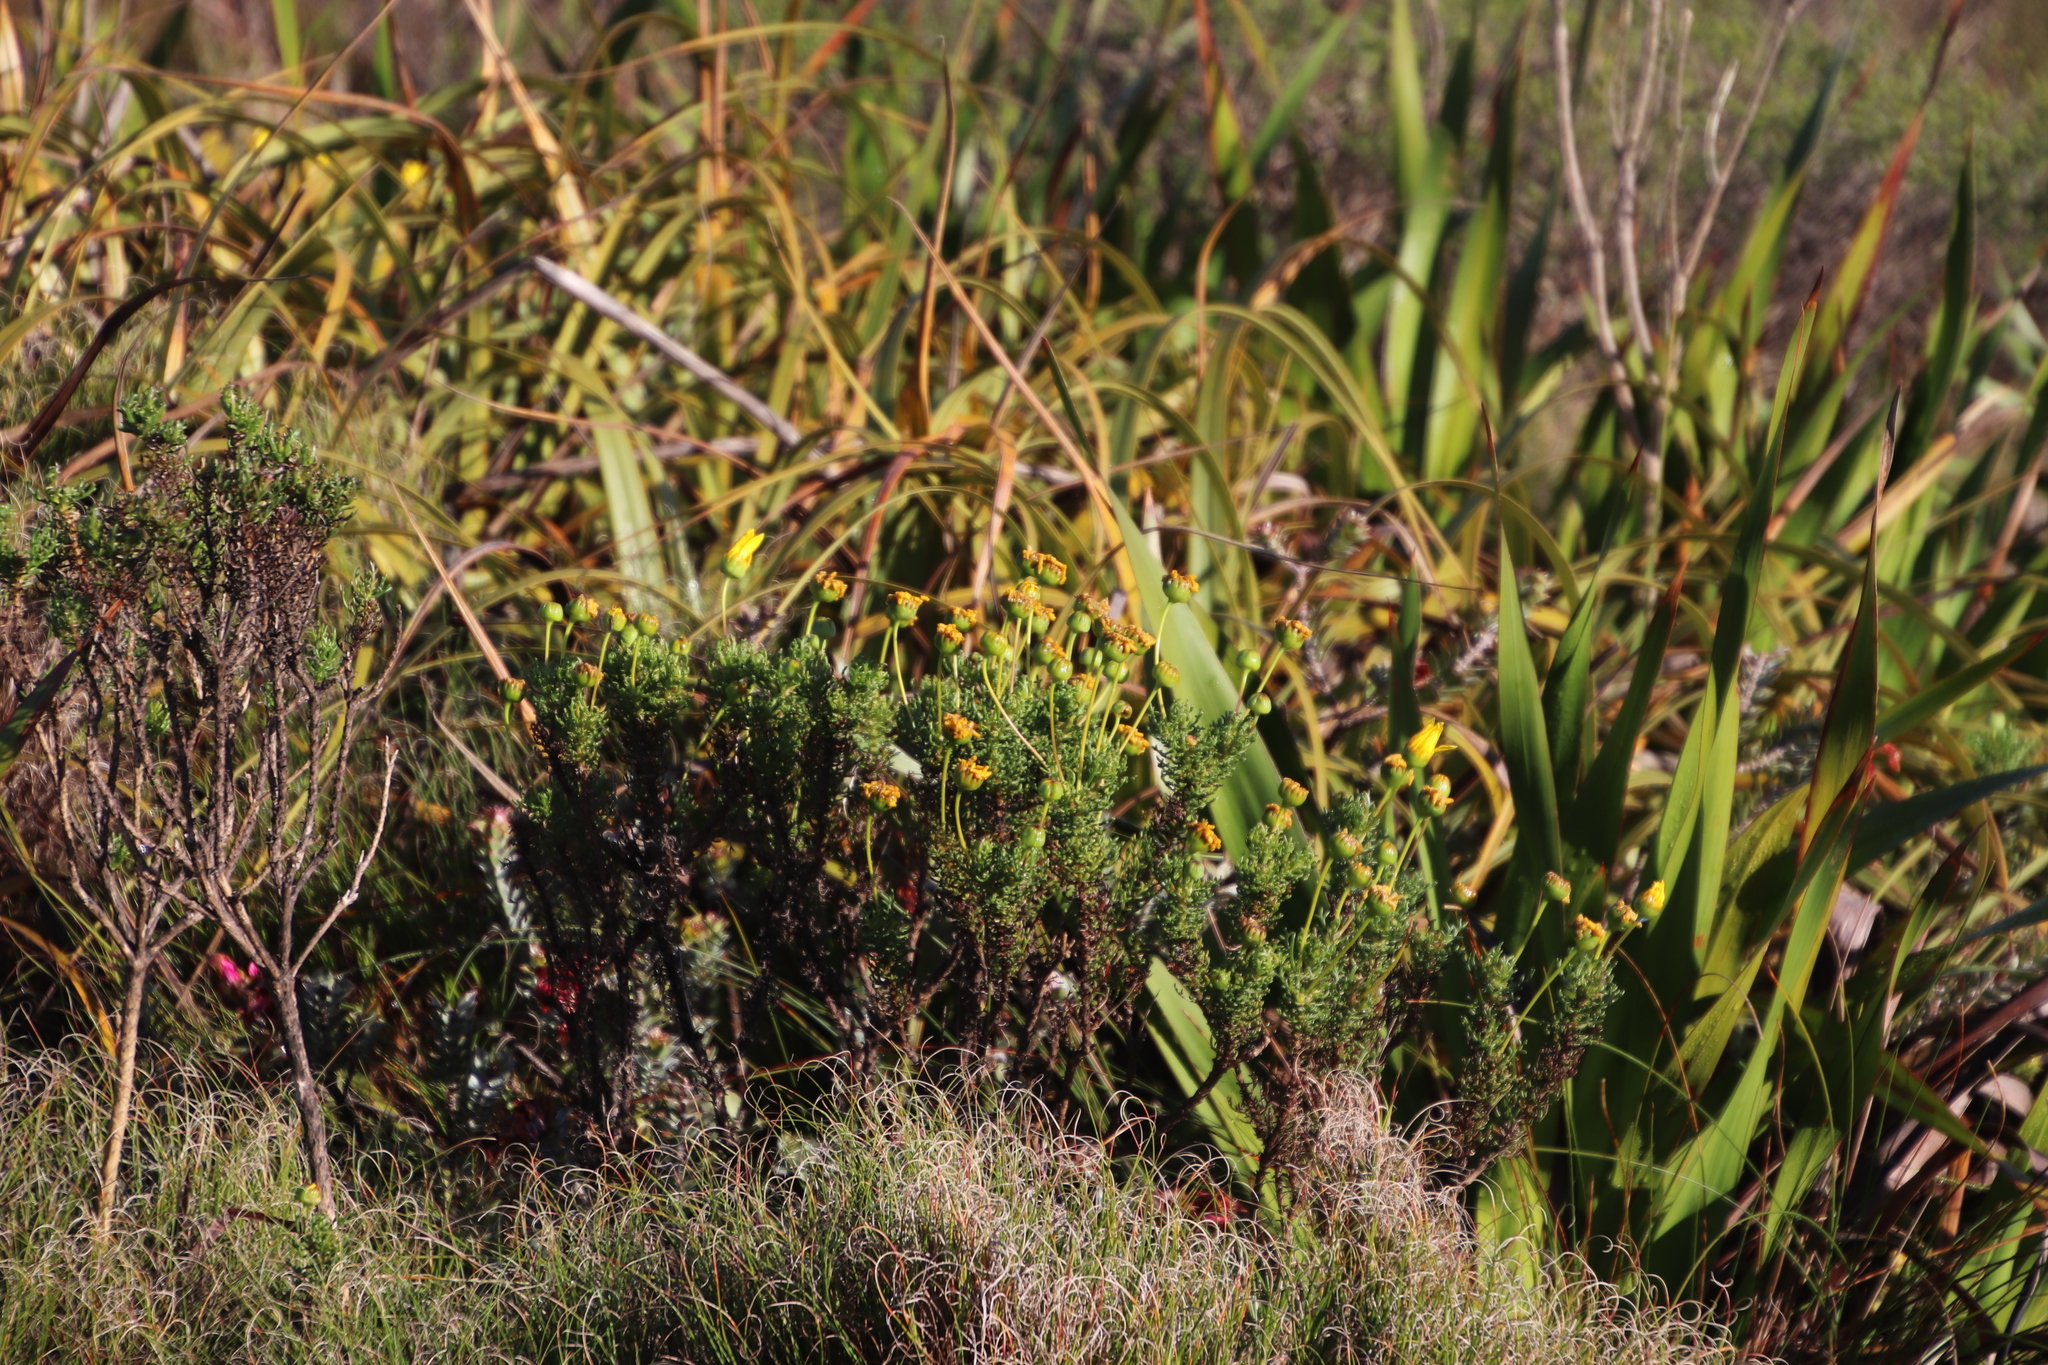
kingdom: Plantae
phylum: Tracheophyta
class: Magnoliopsida
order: Asterales
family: Asteraceae
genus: Euryops
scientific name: Euryops abrotanifolius
